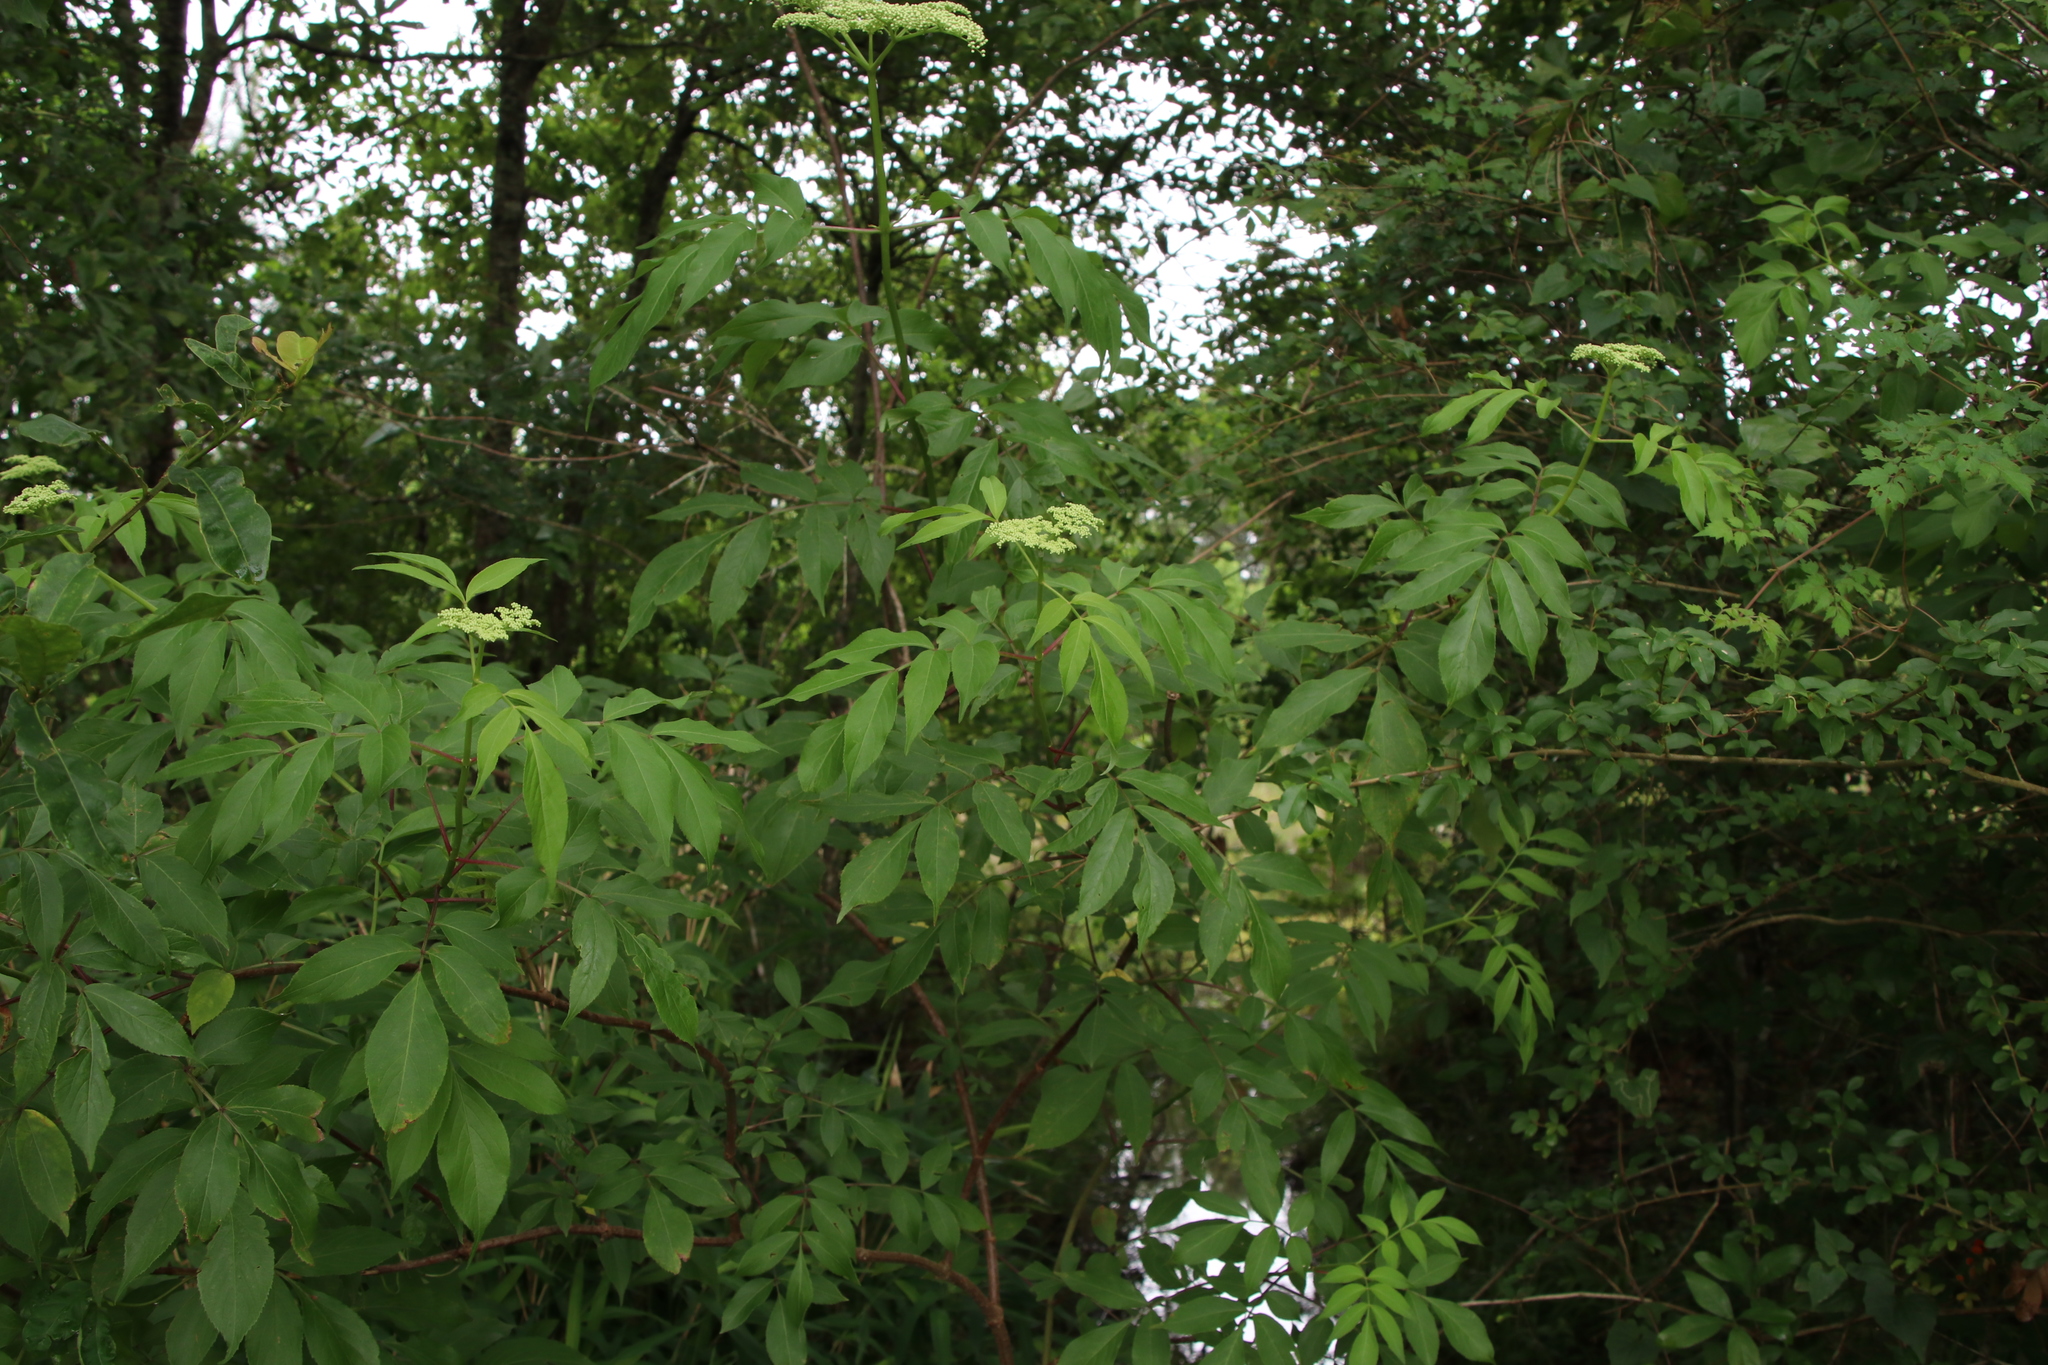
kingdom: Plantae
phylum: Tracheophyta
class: Magnoliopsida
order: Dipsacales
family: Viburnaceae
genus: Sambucus
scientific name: Sambucus canadensis
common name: American elder
